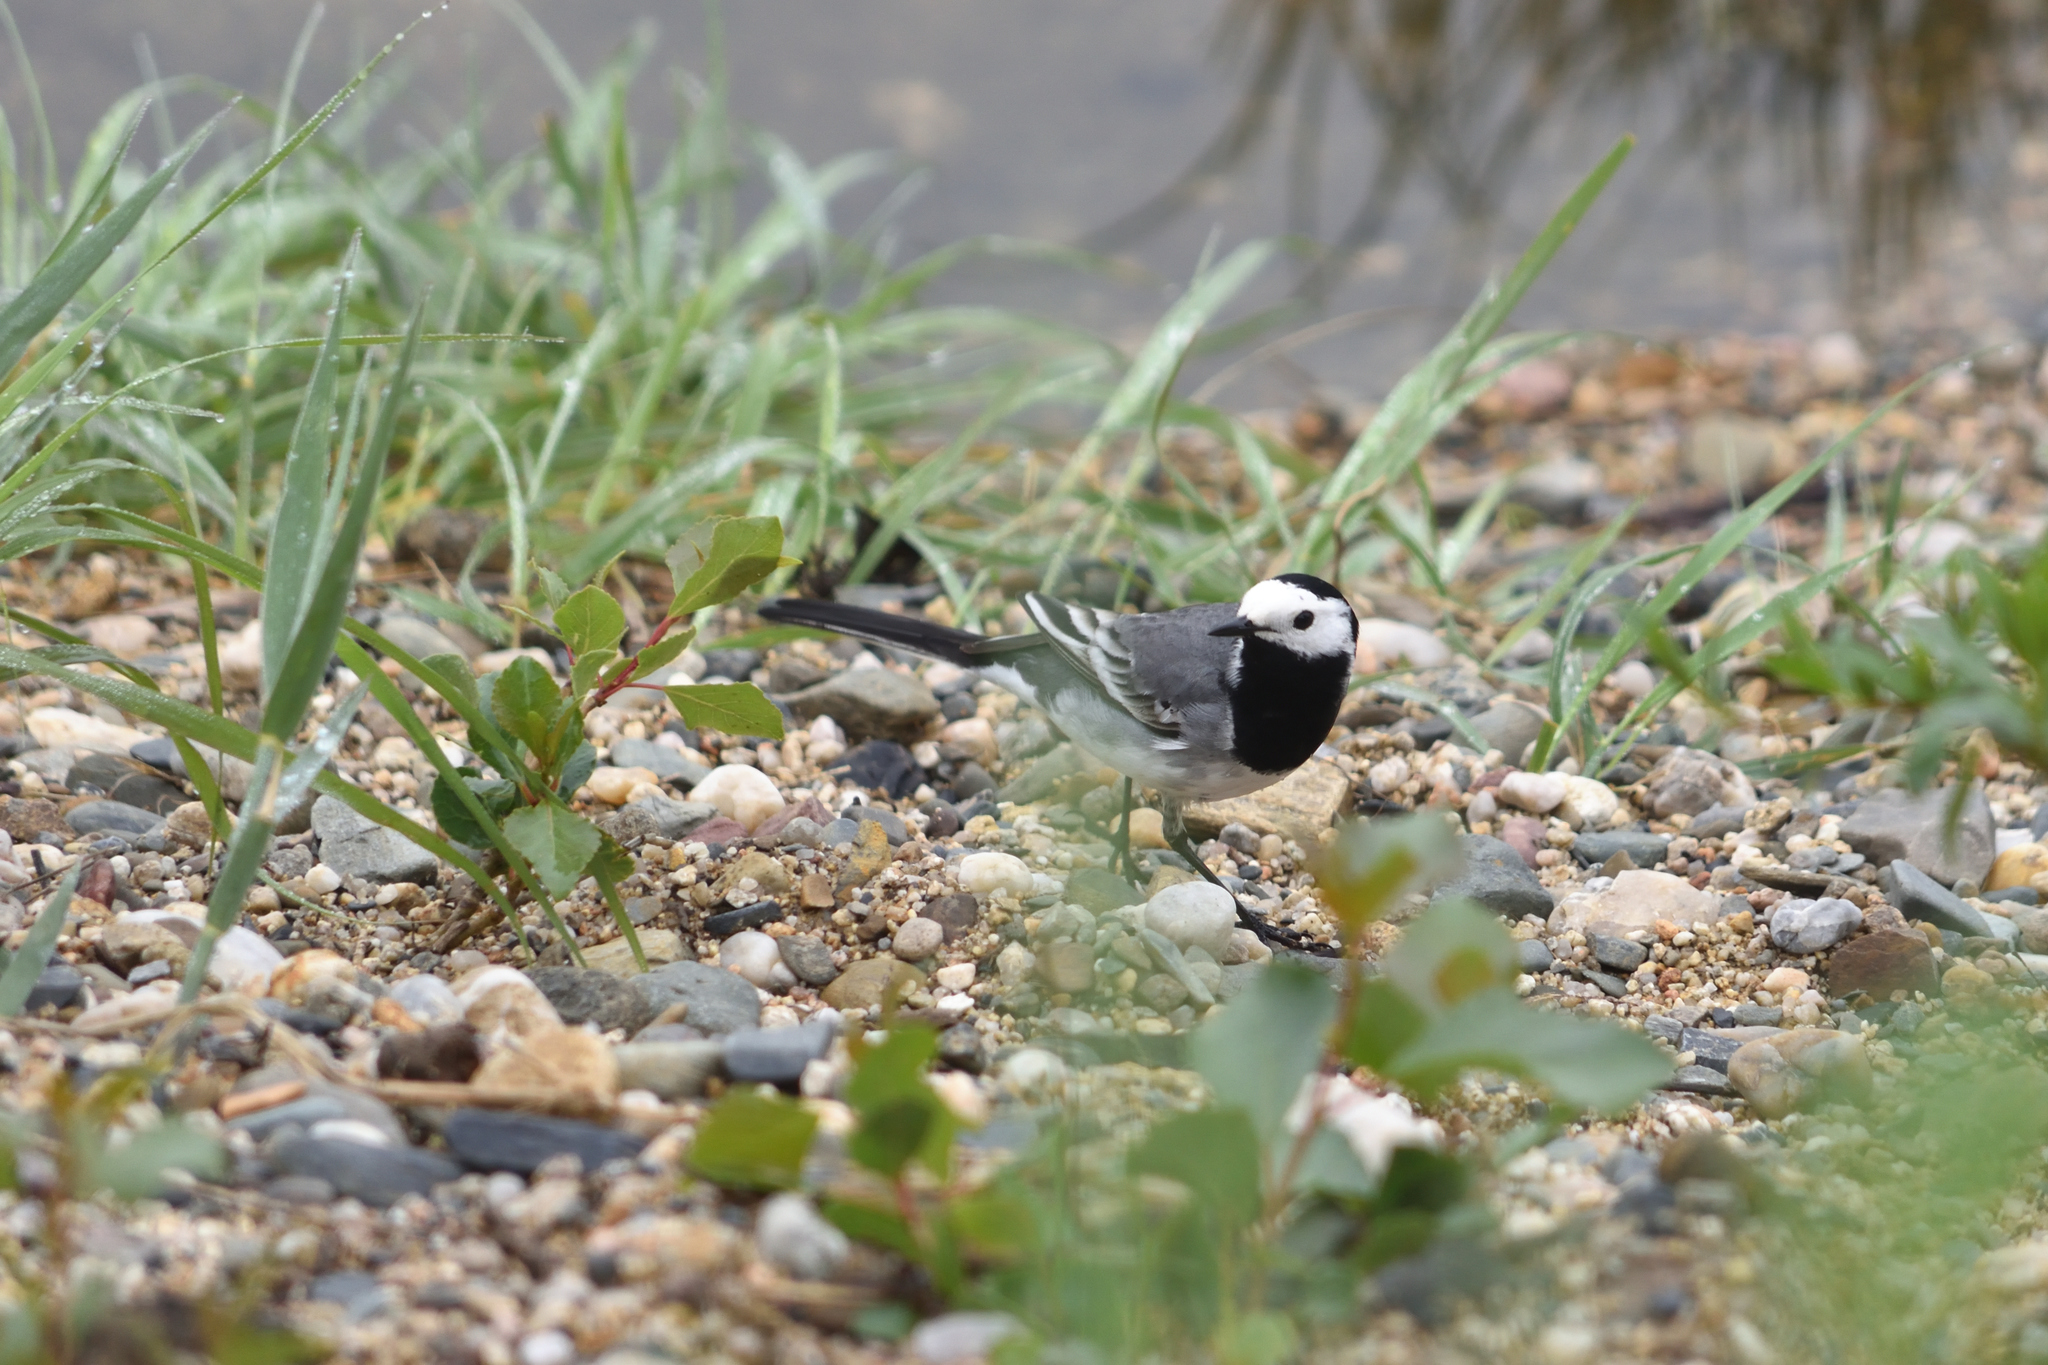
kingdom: Animalia
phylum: Chordata
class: Aves
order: Passeriformes
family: Motacillidae
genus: Motacilla
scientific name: Motacilla alba
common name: White wagtail
